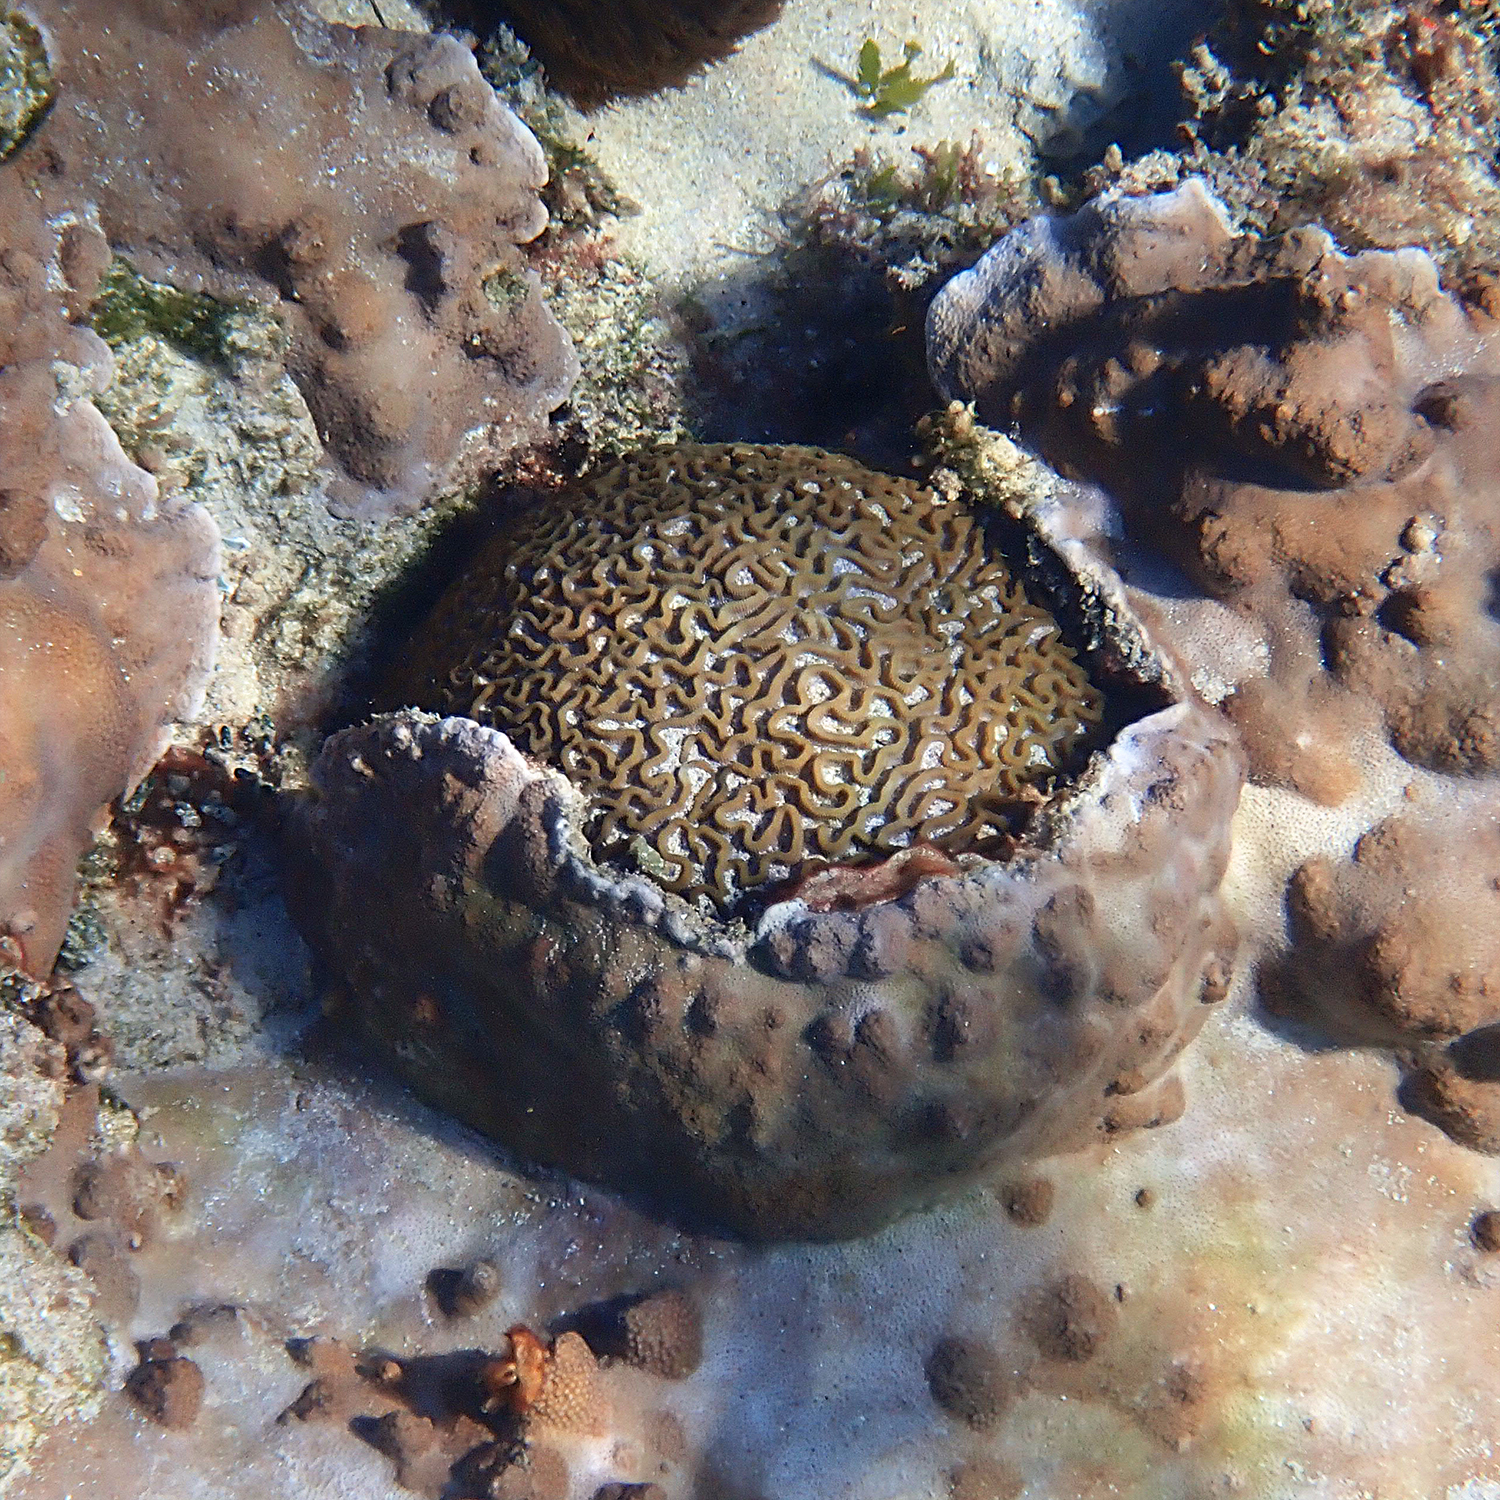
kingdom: Animalia
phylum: Cnidaria
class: Anthozoa
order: Scleractinia
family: Merulinidae
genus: Paragoniastrea
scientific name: Paragoniastrea australensis
